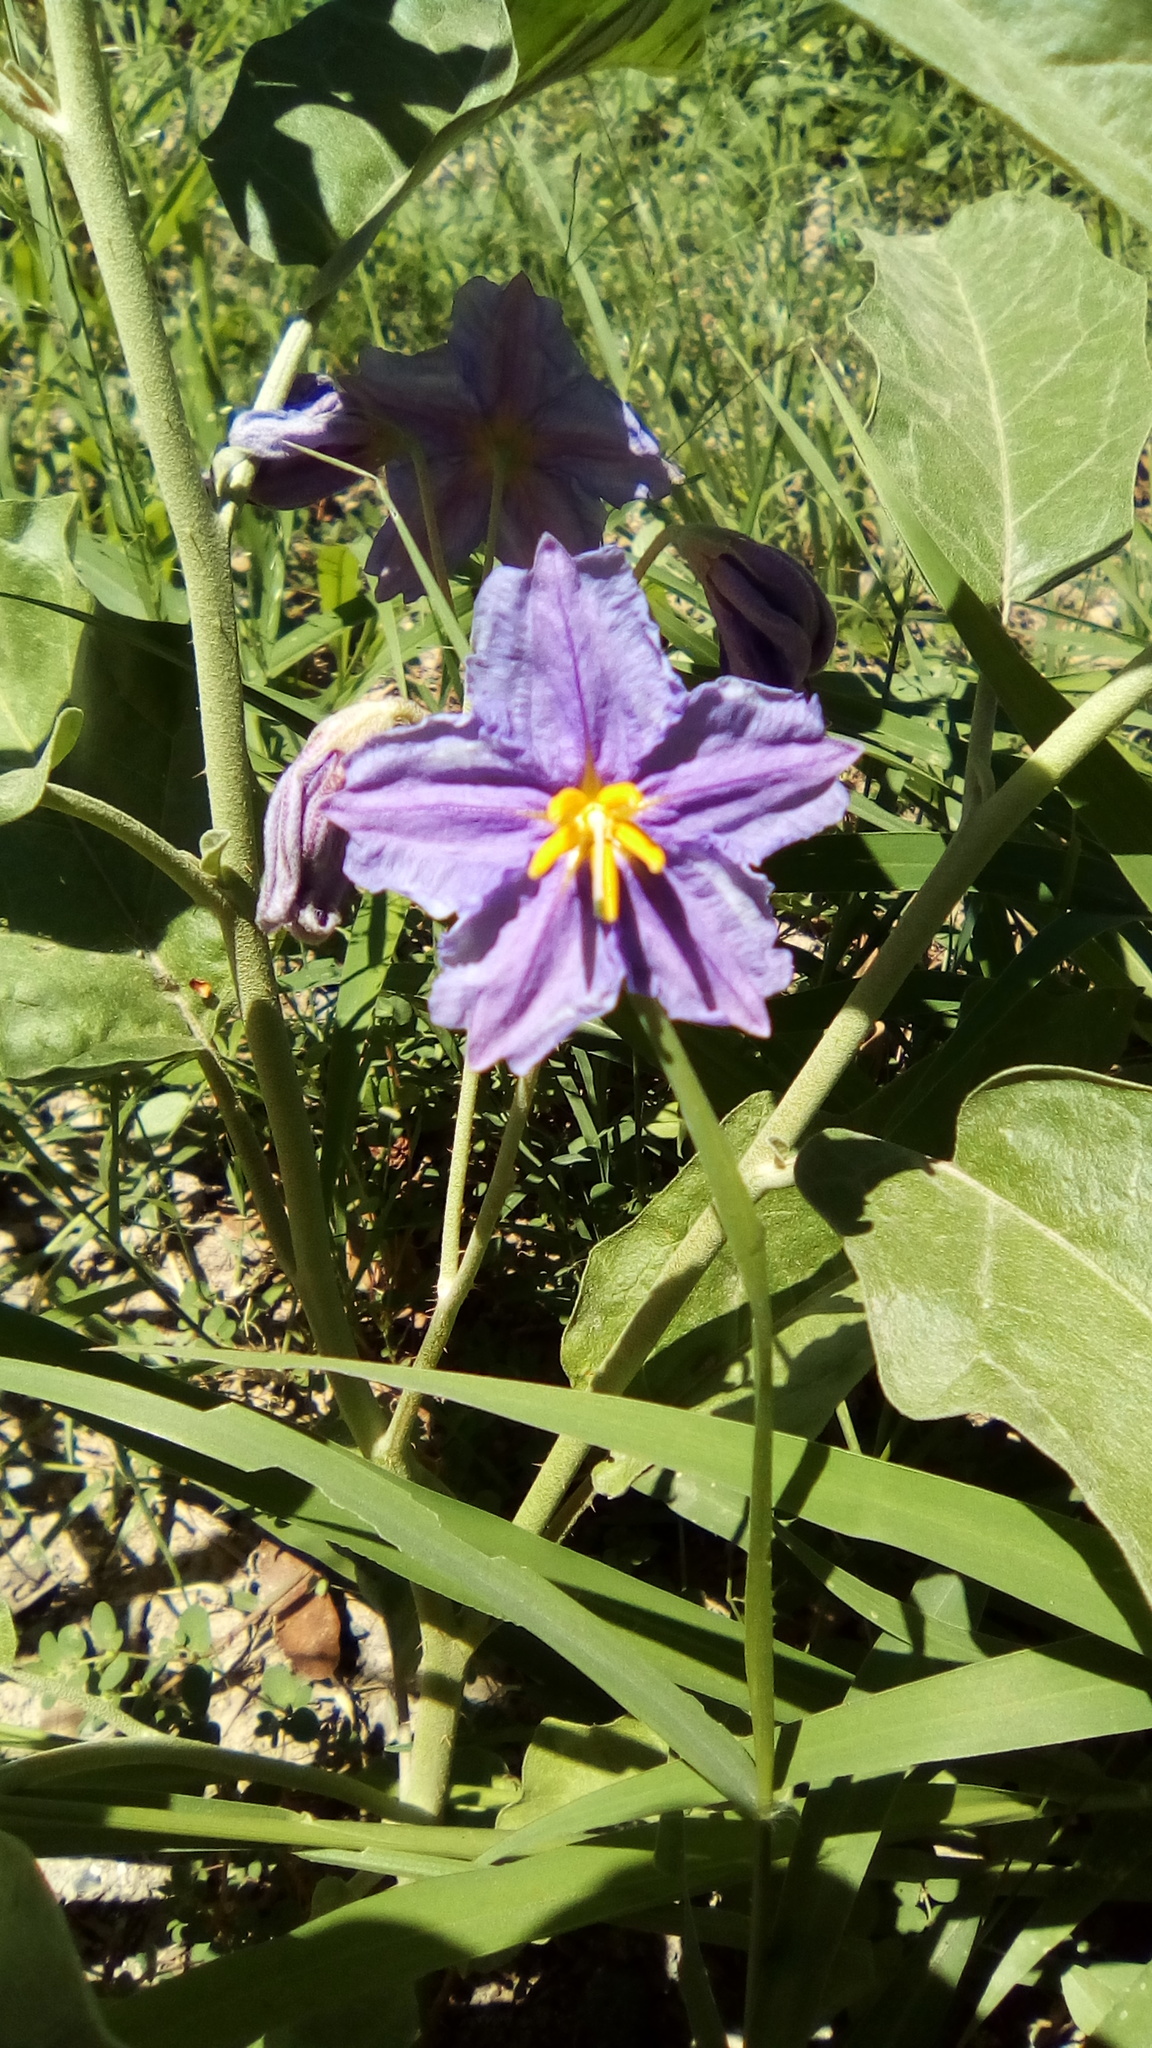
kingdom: Plantae
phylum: Tracheophyta
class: Magnoliopsida
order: Solanales
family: Solanaceae
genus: Solanum
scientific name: Solanum elaeagnifolium
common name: Silverleaf nightshade
